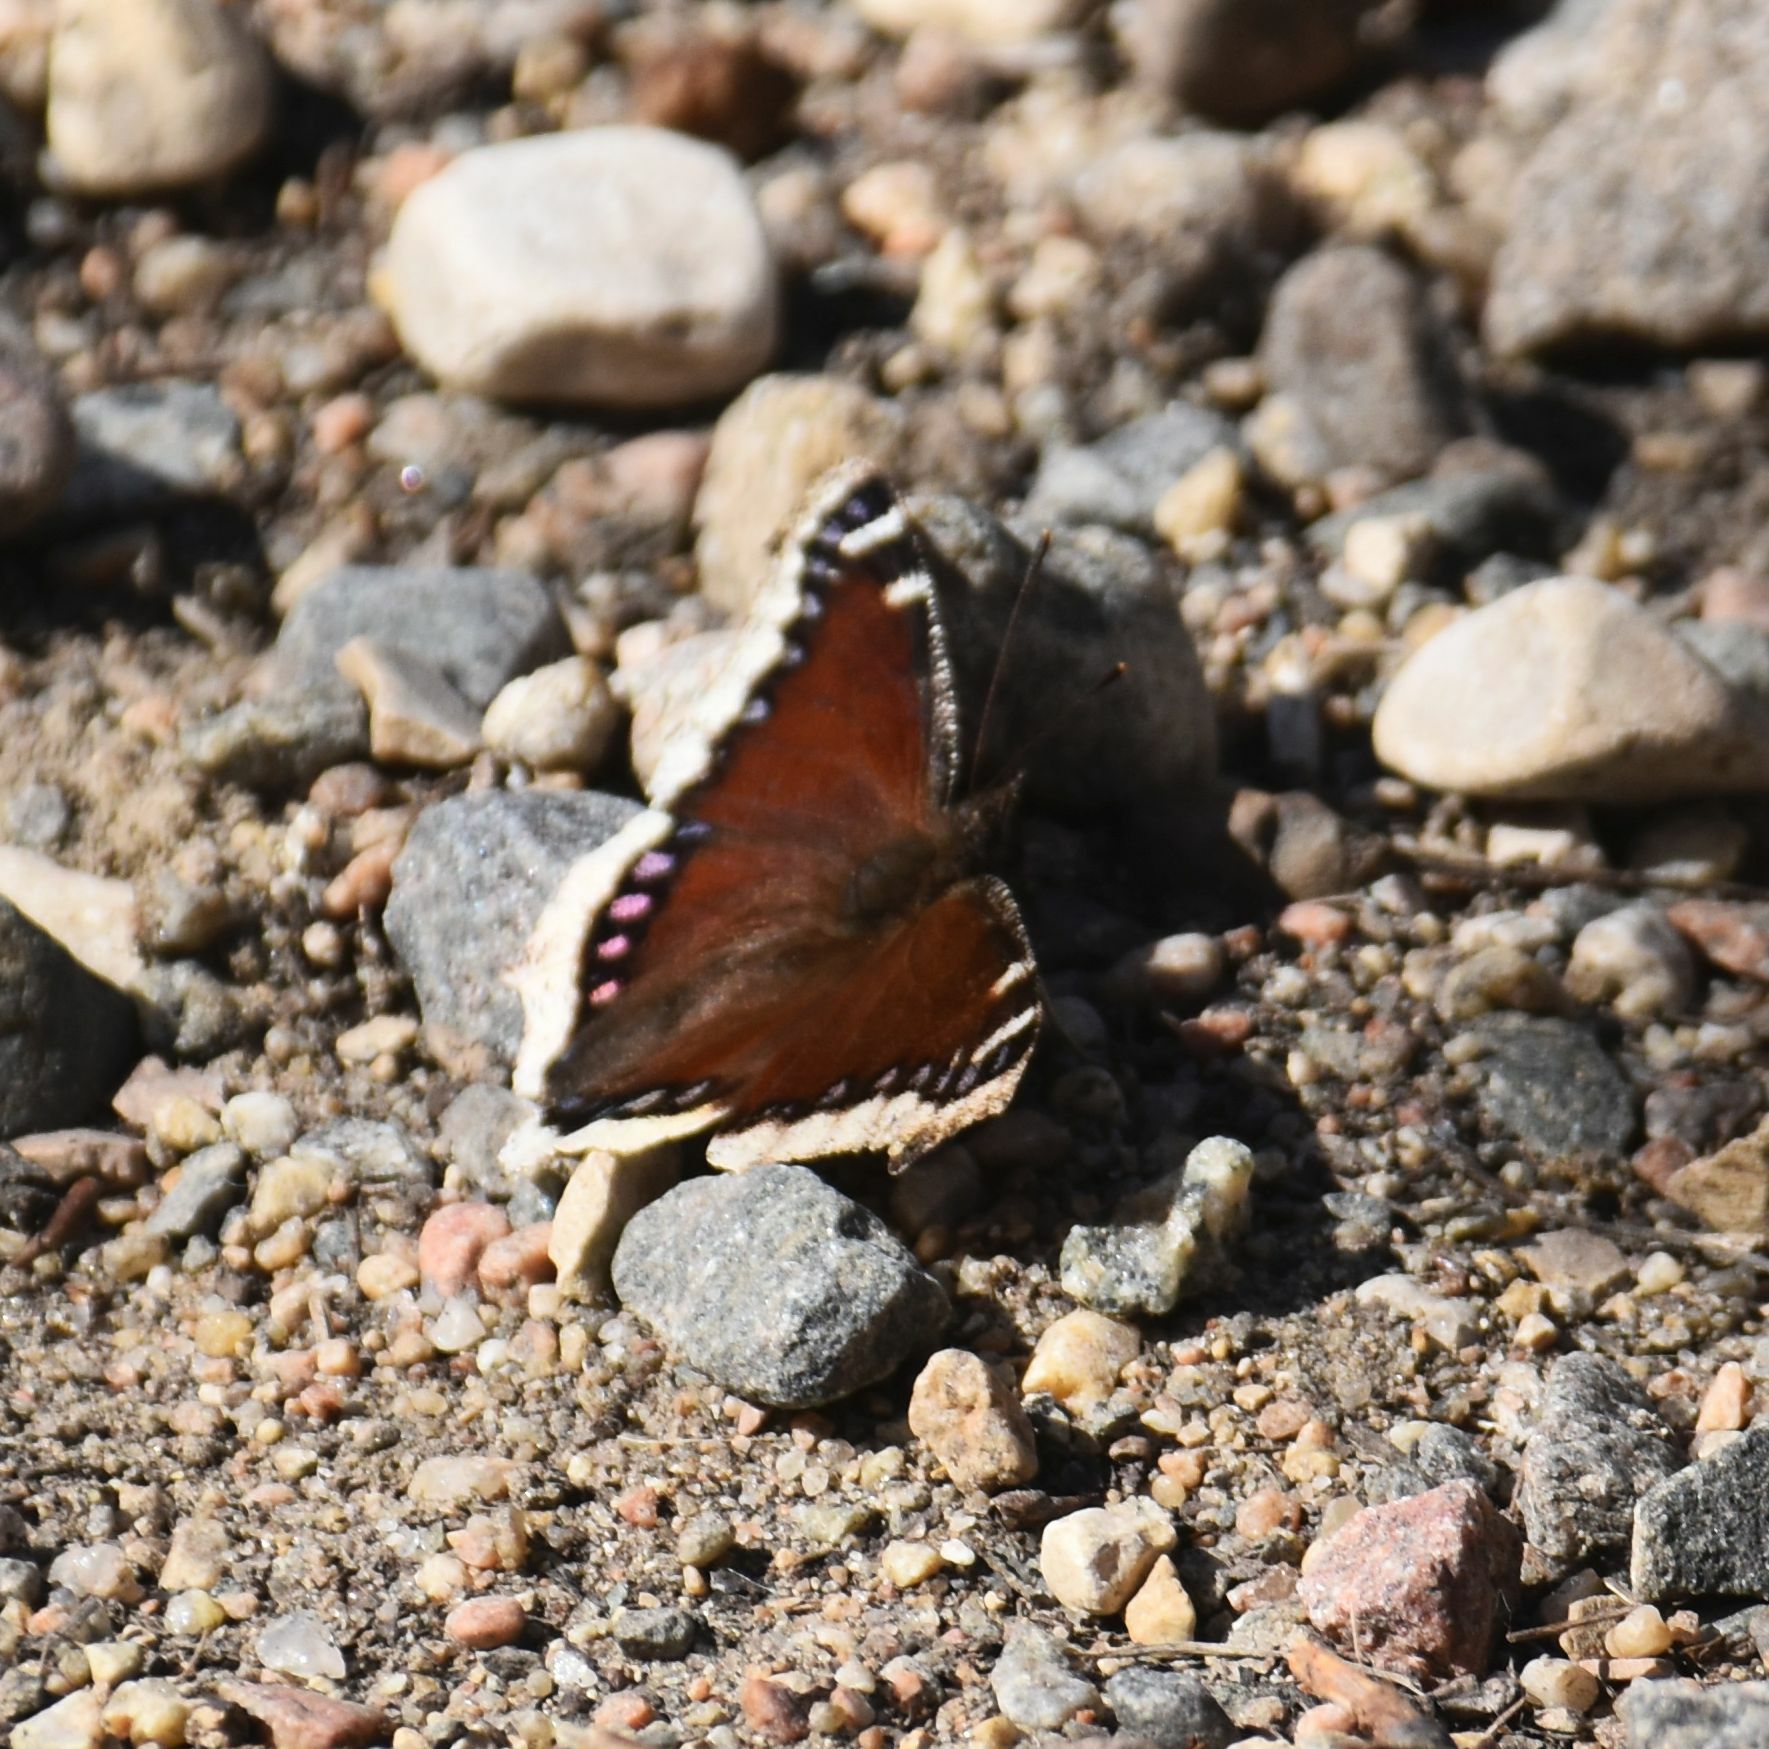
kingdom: Animalia
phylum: Arthropoda
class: Insecta
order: Lepidoptera
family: Nymphalidae
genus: Nymphalis
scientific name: Nymphalis antiopa
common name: Camberwell beauty
